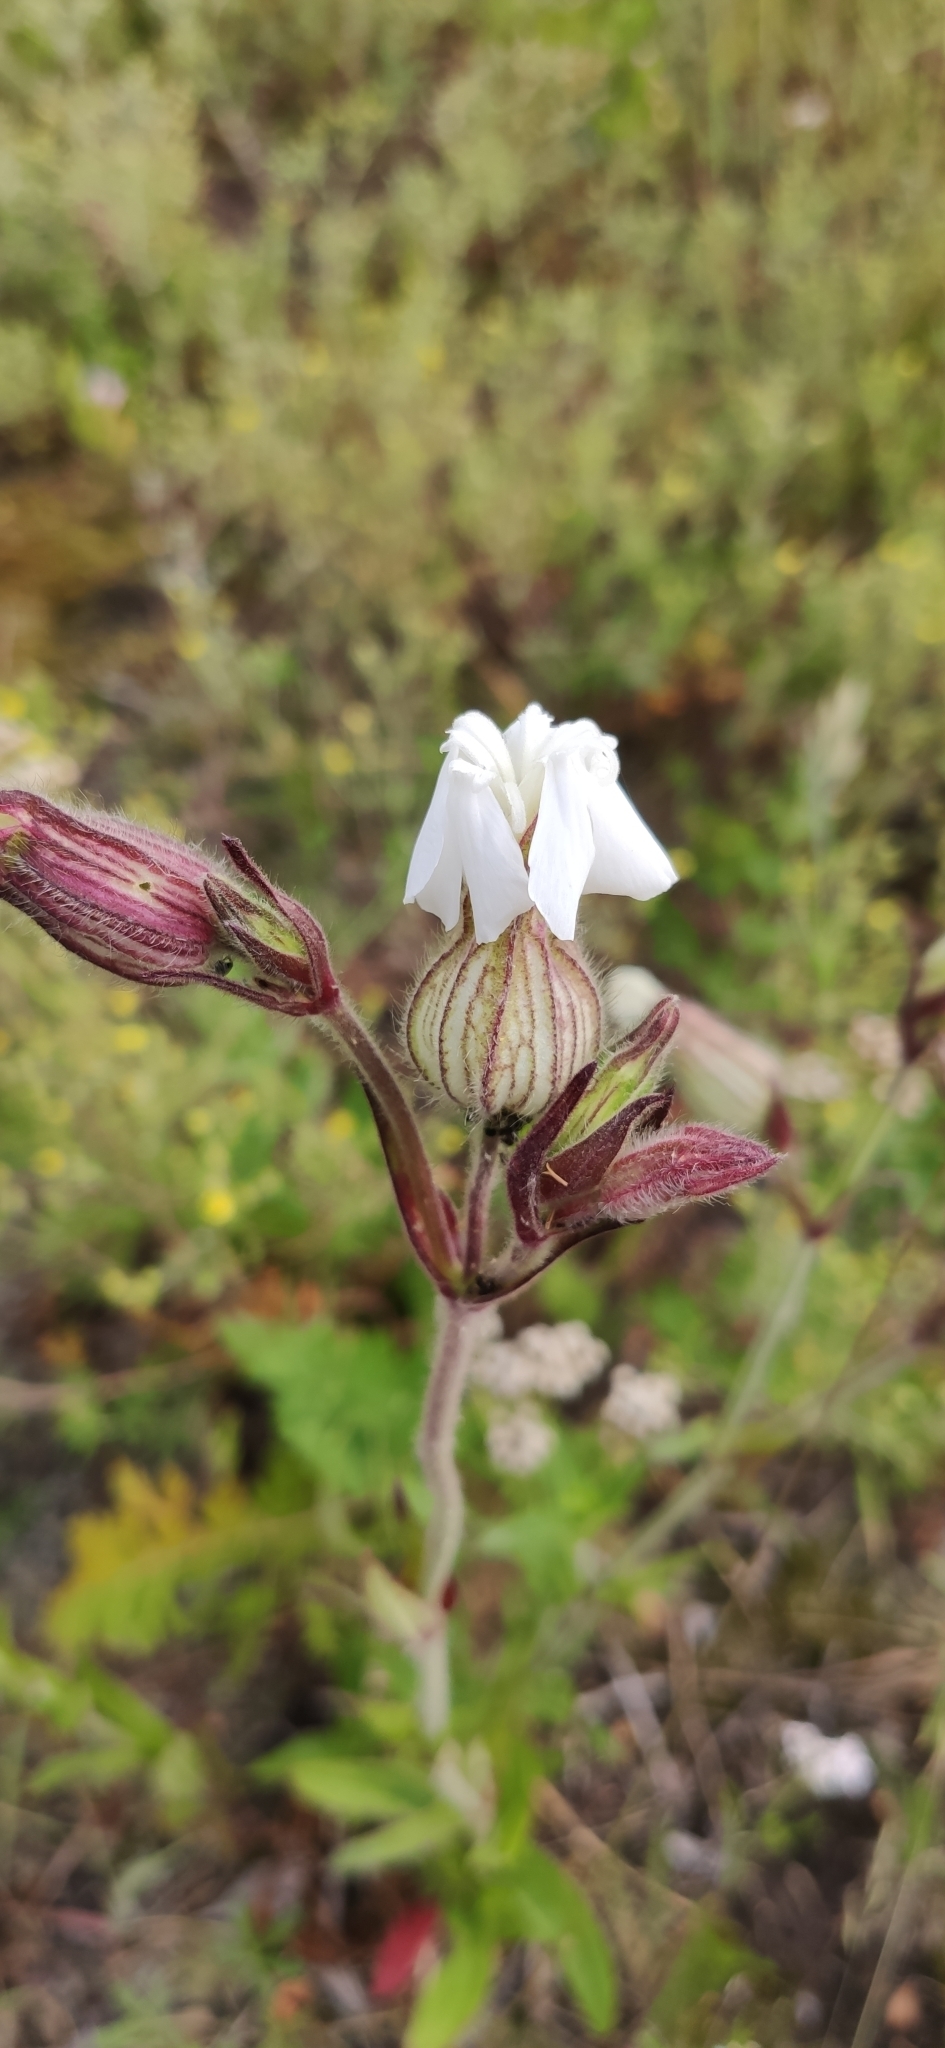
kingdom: Plantae
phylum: Tracheophyta
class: Magnoliopsida
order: Caryophyllales
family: Caryophyllaceae
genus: Silene
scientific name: Silene latifolia
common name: White campion
